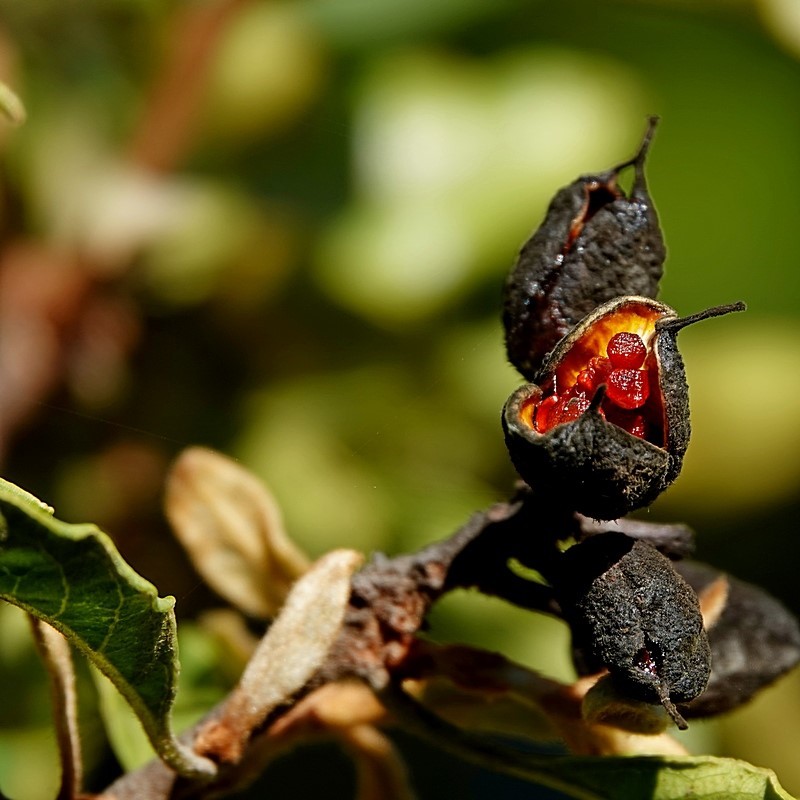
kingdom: Plantae
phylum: Tracheophyta
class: Magnoliopsida
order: Apiales
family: Pittosporaceae
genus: Pittosporum
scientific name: Pittosporum revolutum
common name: Brisbane-laurel
